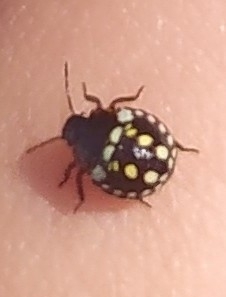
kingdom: Animalia
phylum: Arthropoda
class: Insecta
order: Hemiptera
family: Pentatomidae
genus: Nezara
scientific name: Nezara viridula
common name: Southern green stink bug
